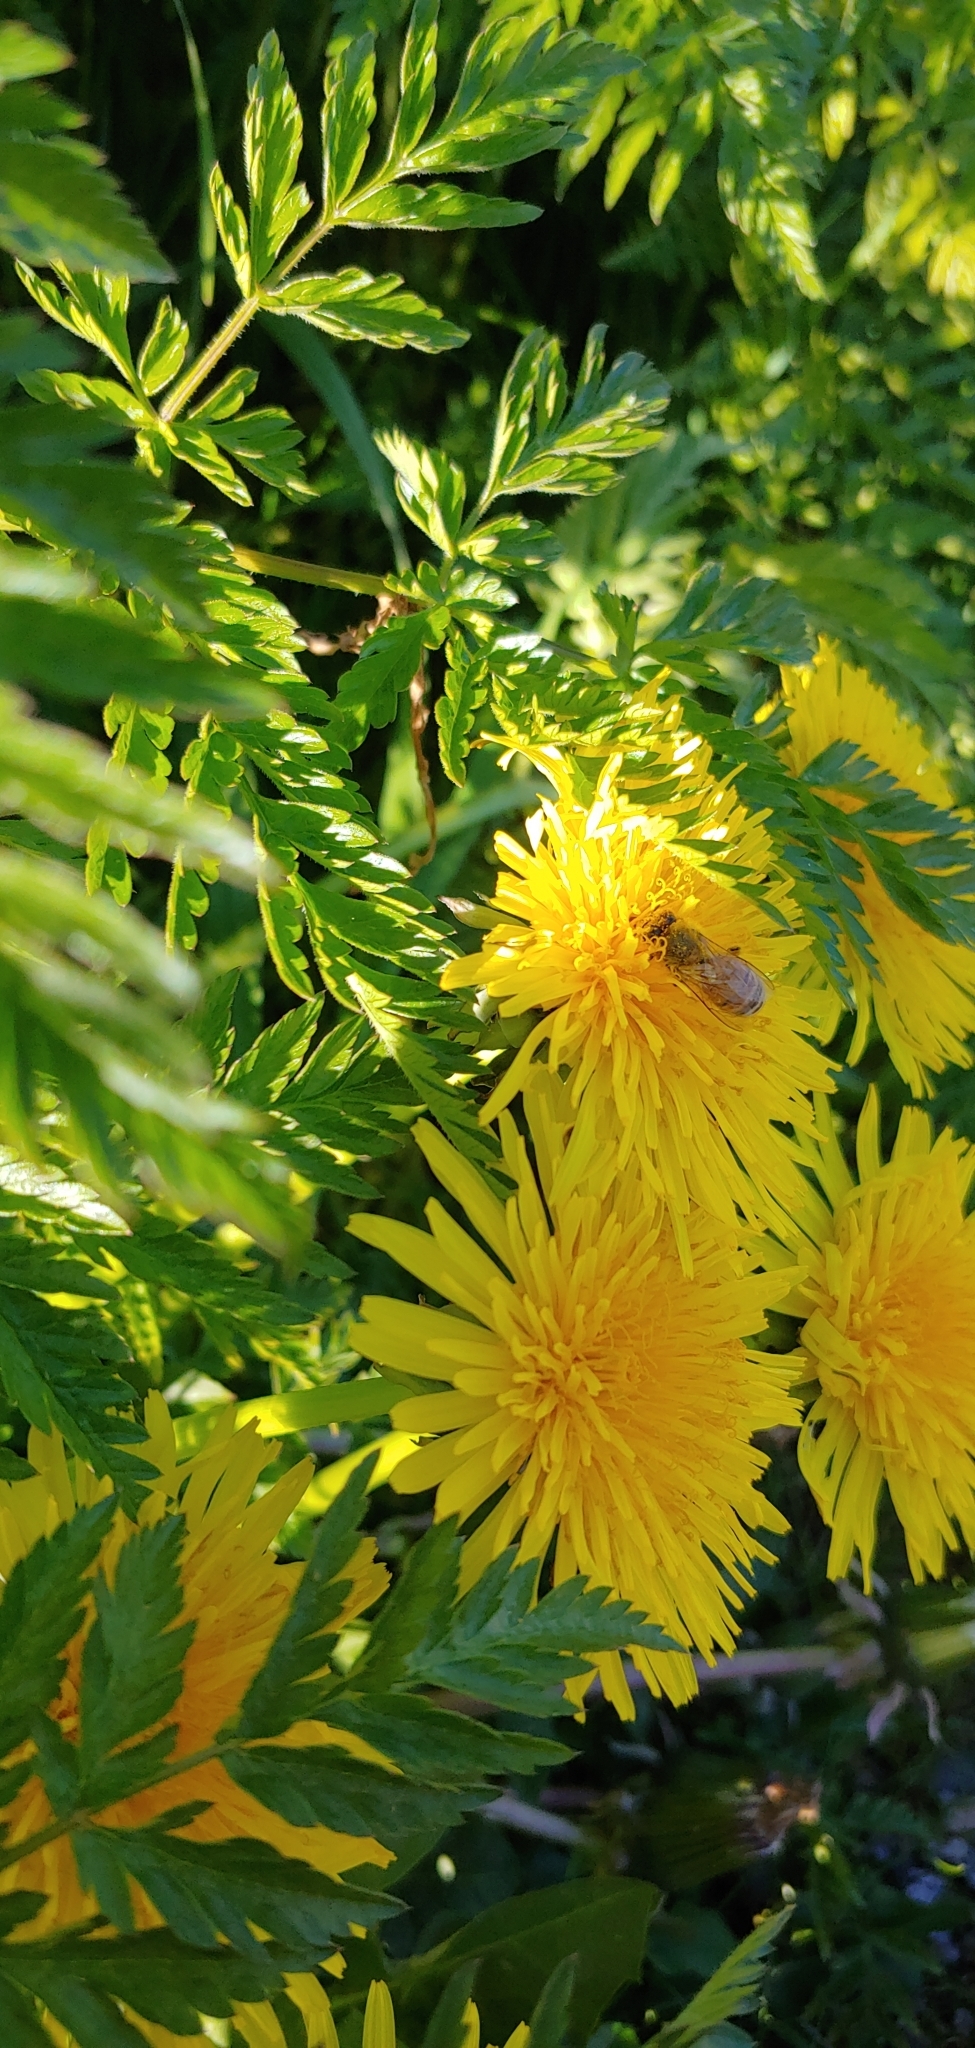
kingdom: Animalia
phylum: Arthropoda
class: Insecta
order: Hymenoptera
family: Apidae
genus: Apis
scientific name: Apis mellifera
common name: Honey bee
